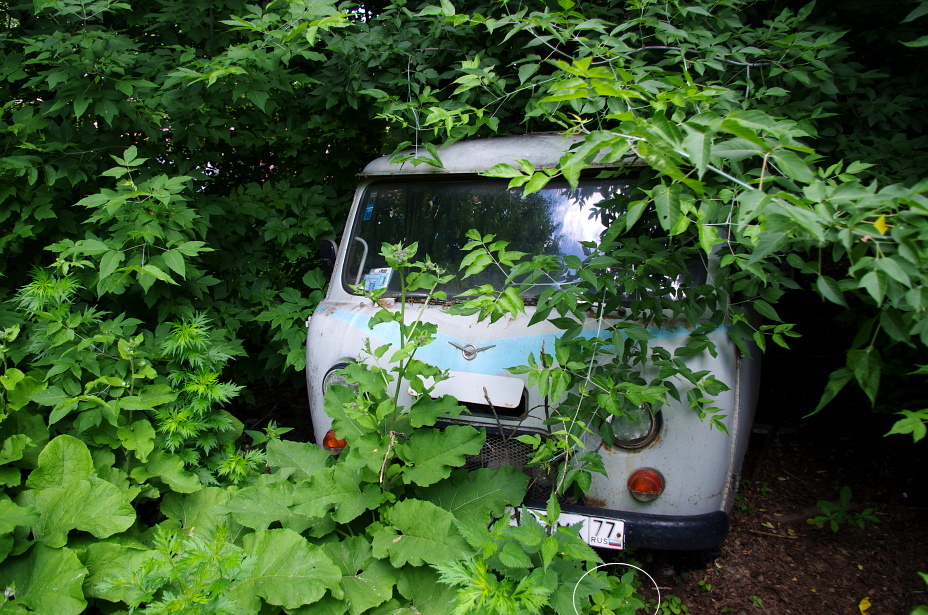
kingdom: Plantae
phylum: Tracheophyta
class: Magnoliopsida
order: Ericales
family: Balsaminaceae
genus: Impatiens
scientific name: Impatiens parviflora
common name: Small balsam
